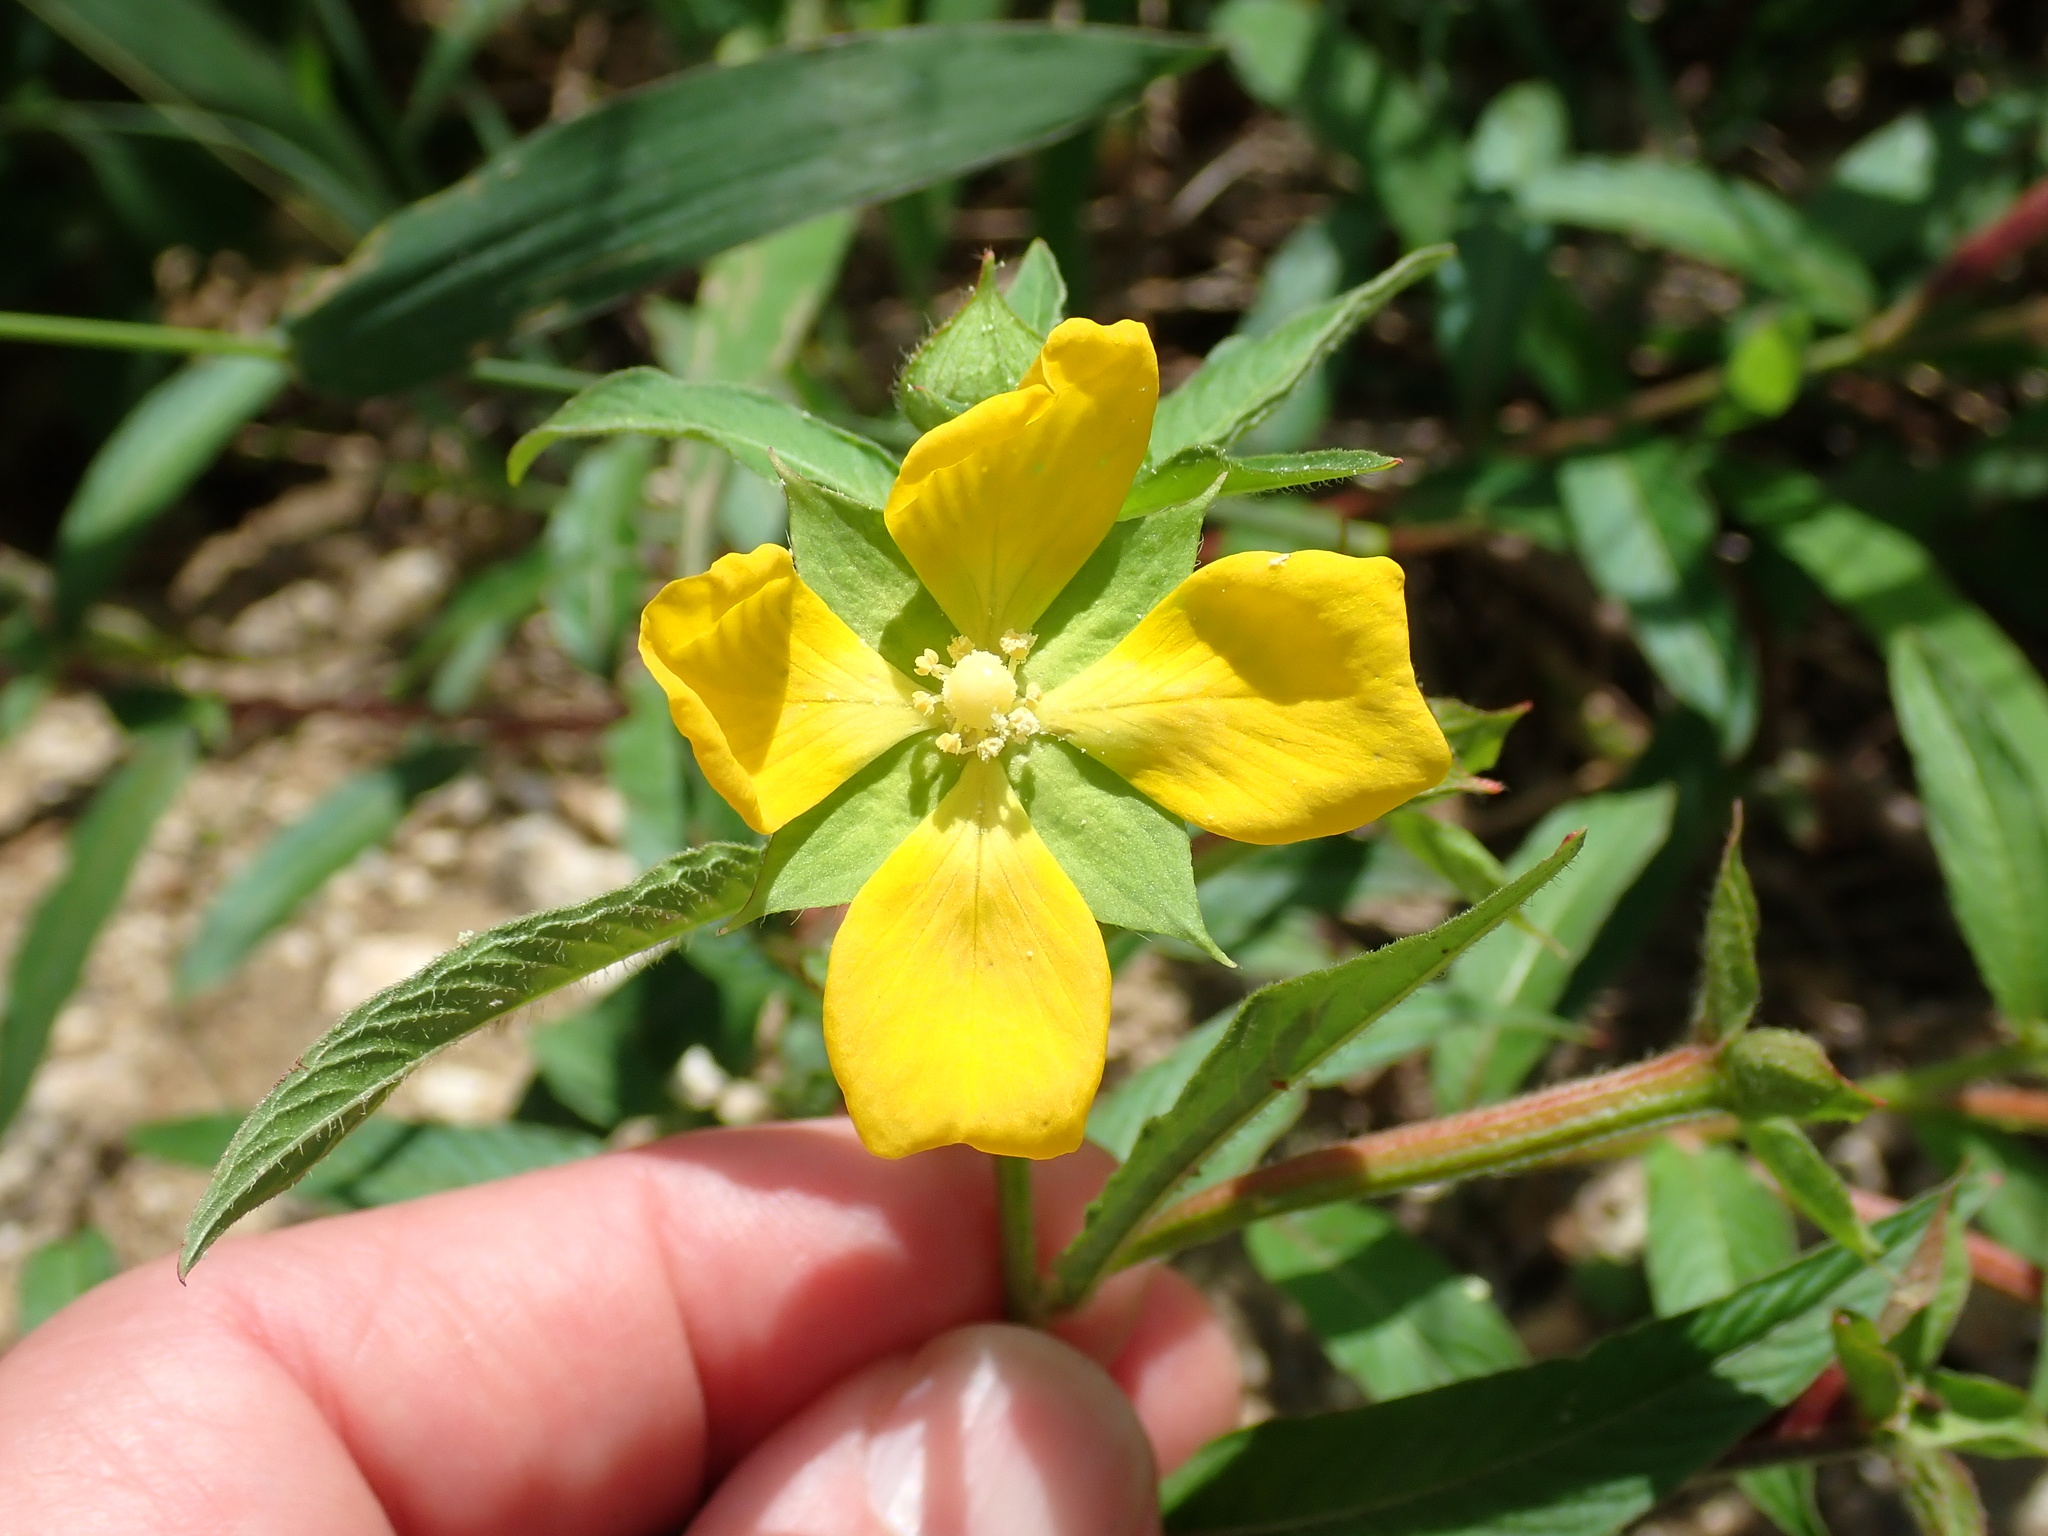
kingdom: Plantae
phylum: Tracheophyta
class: Magnoliopsida
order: Myrtales
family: Onagraceae
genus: Ludwigia
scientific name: Ludwigia octovalvis
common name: Water-primrose
